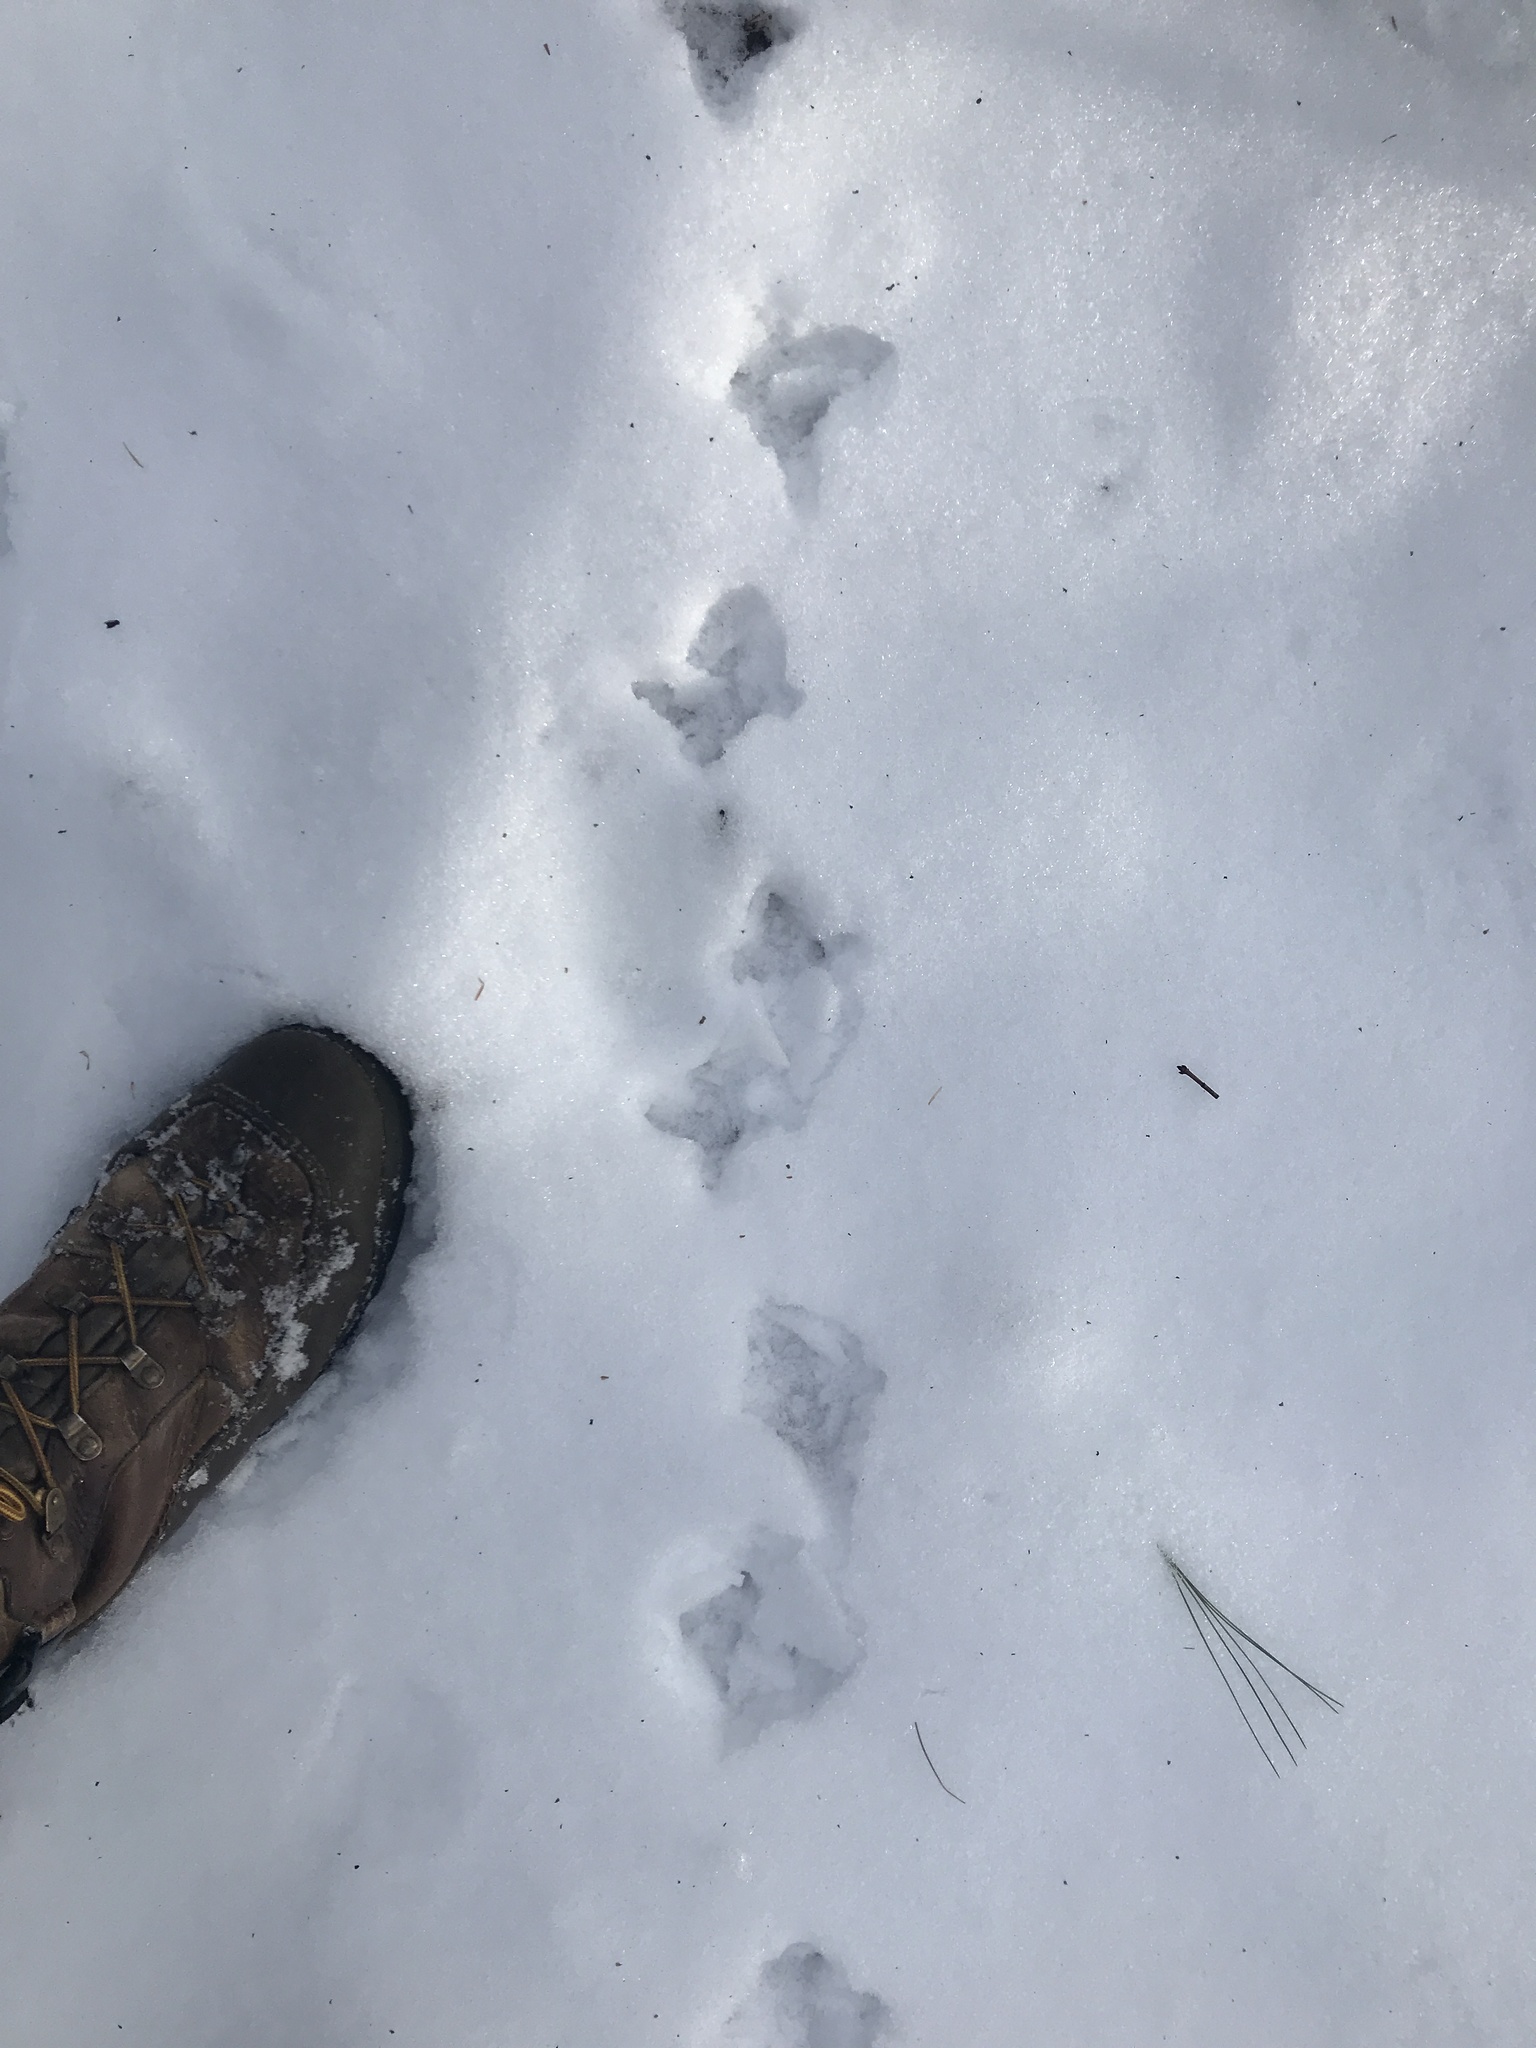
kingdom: Animalia
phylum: Chordata
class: Aves
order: Galliformes
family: Phasianidae
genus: Bonasa
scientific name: Bonasa umbellus
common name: Ruffed grouse
